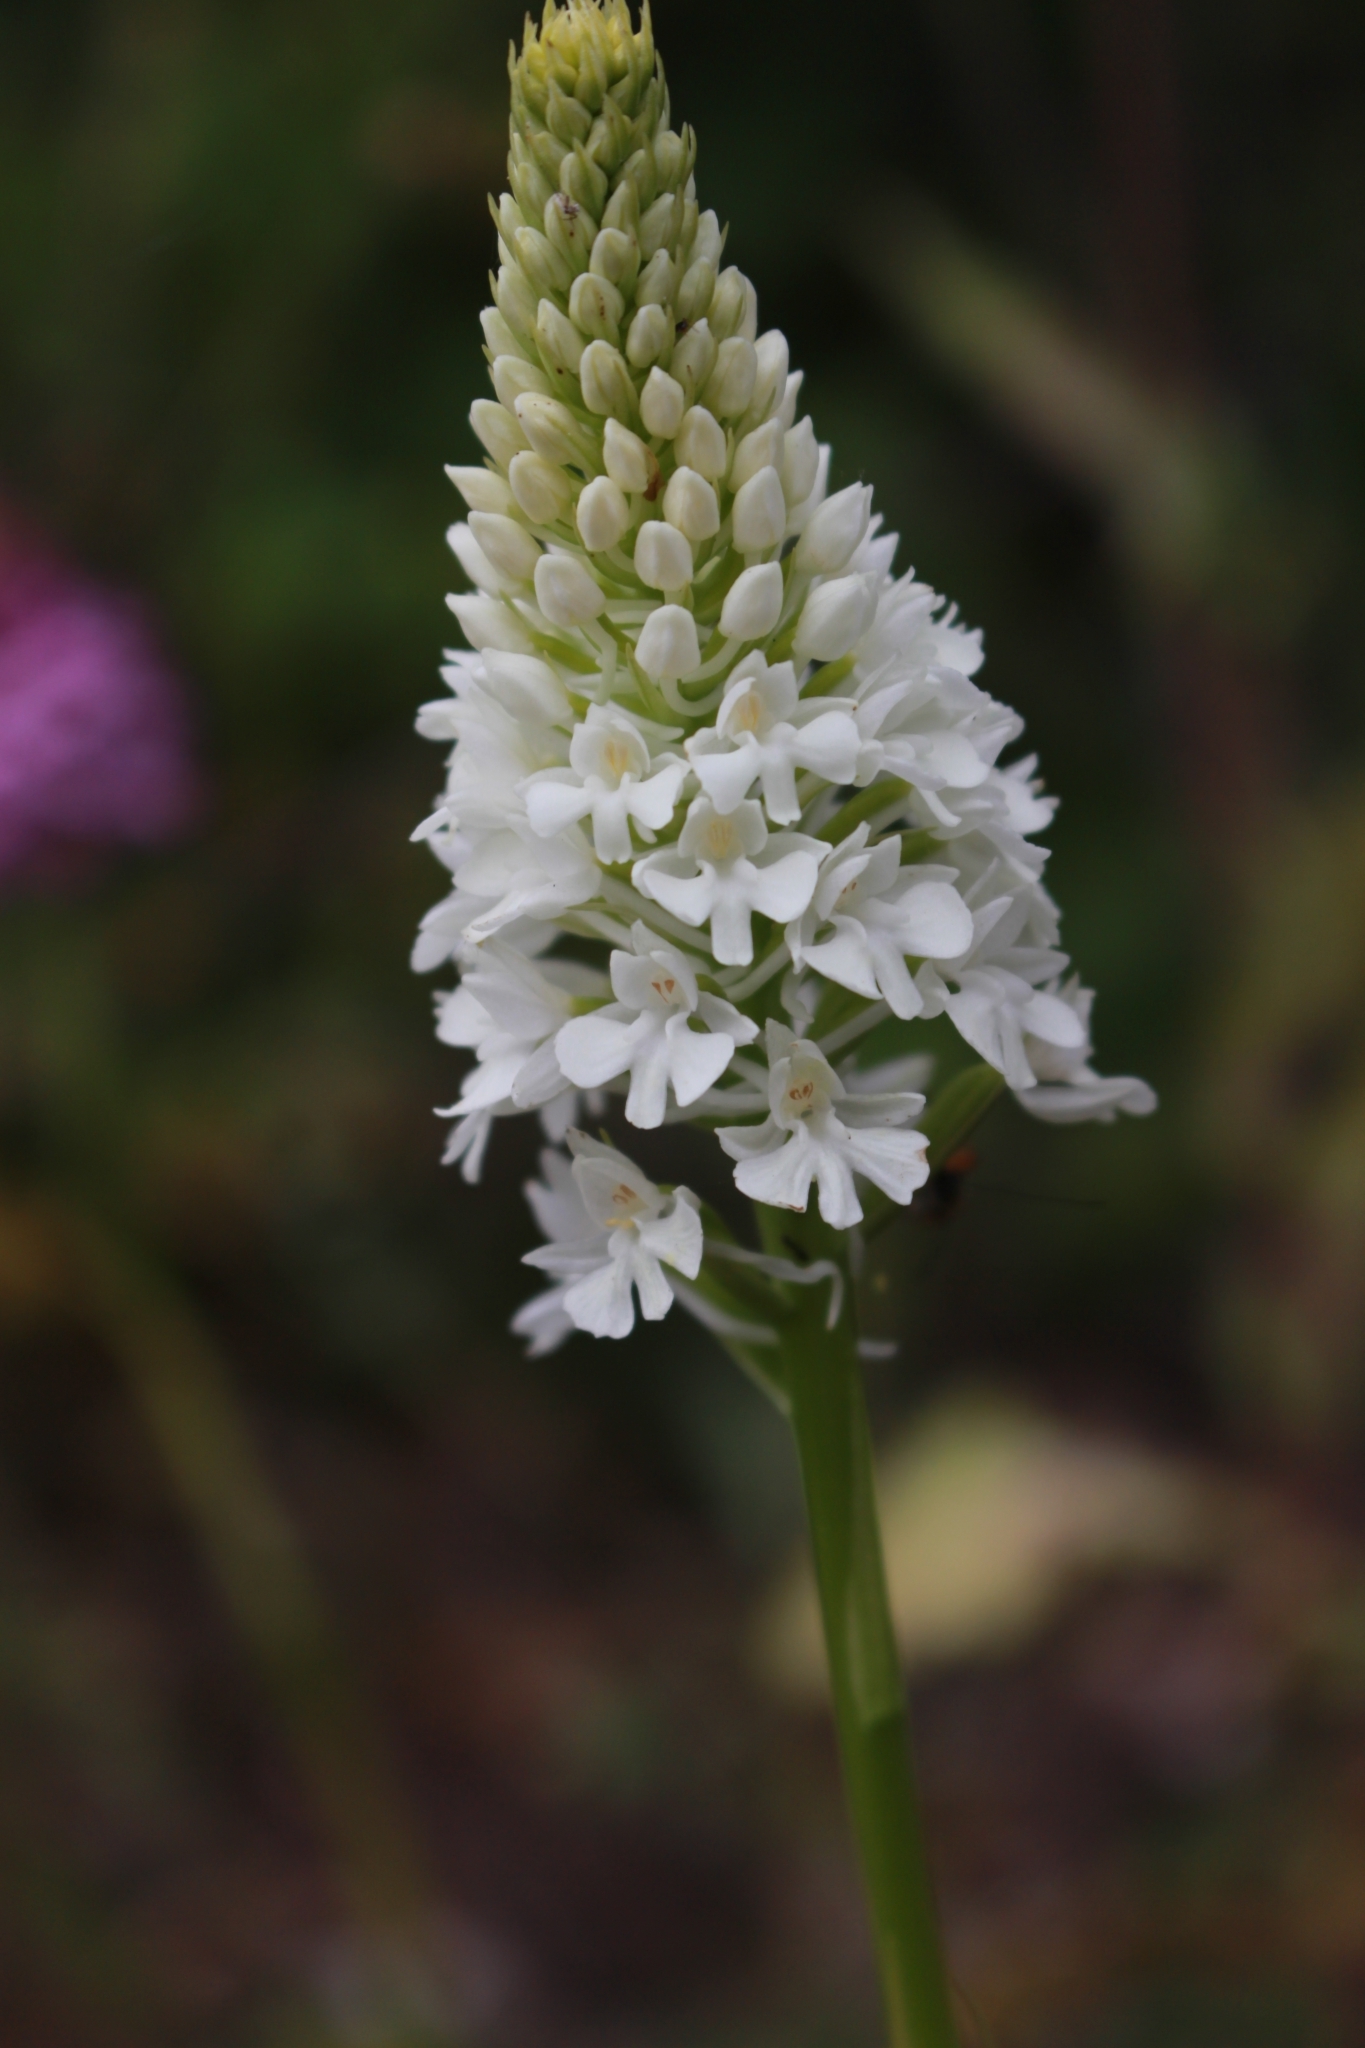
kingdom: Plantae
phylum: Tracheophyta
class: Liliopsida
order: Asparagales
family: Orchidaceae
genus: Anacamptis
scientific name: Anacamptis pyramidalis
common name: Pyramidal orchid
